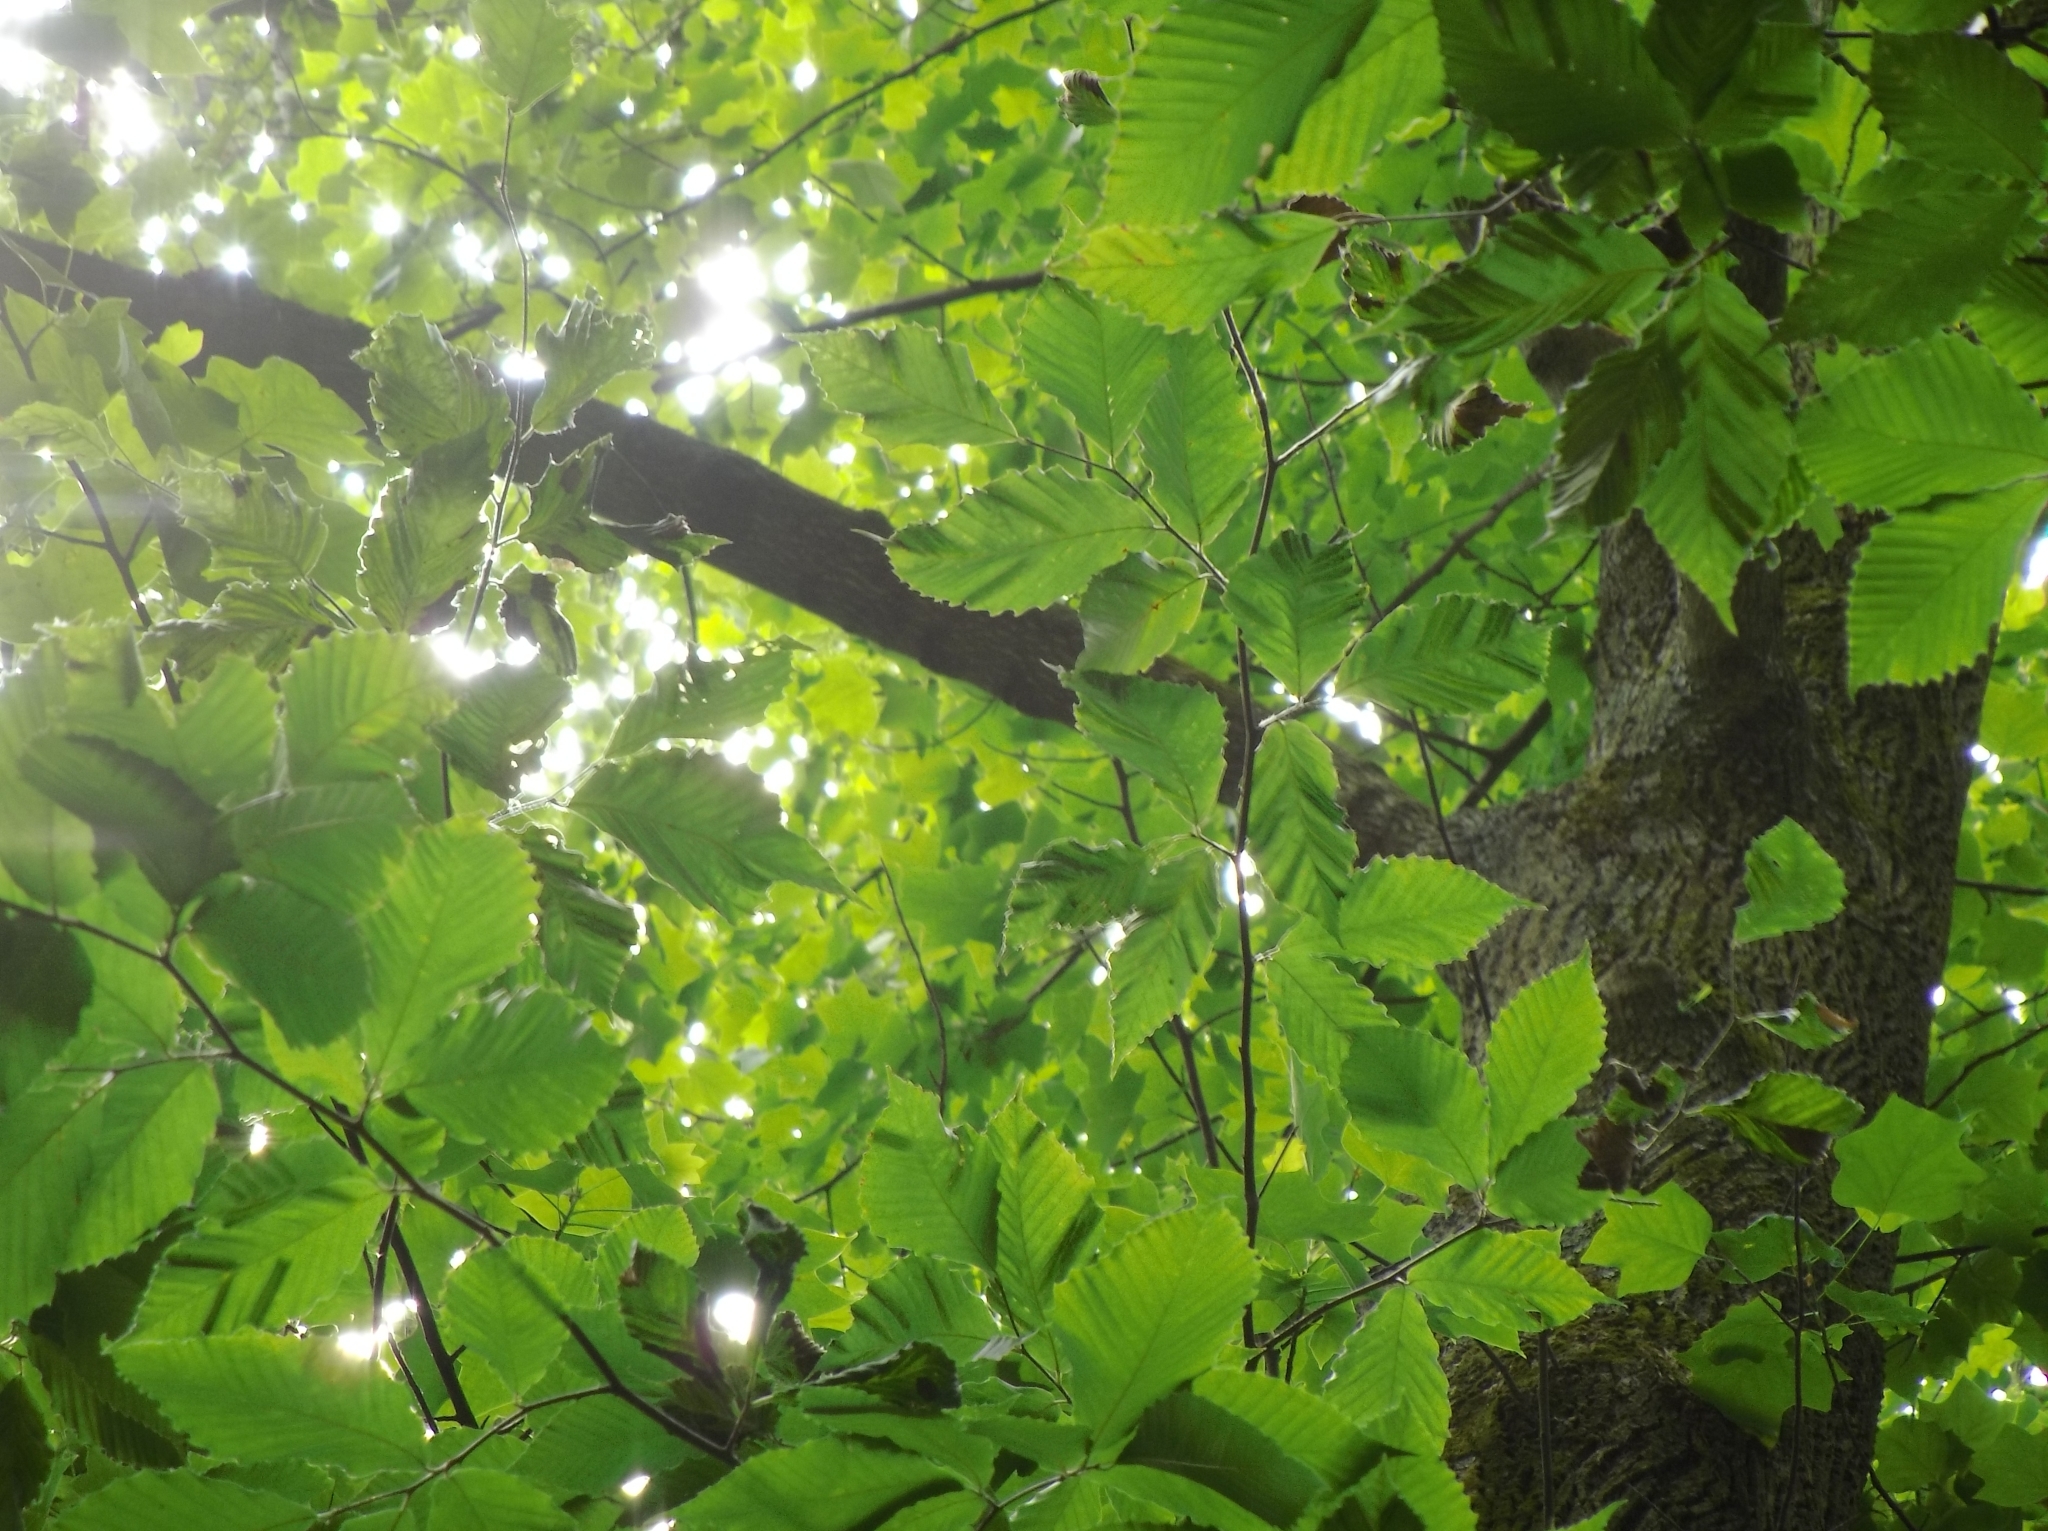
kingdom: Animalia
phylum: Nematoda
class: Chromadorea
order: Rhabditida
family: Anguinidae
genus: Litylenchus
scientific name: Litylenchus crenatae
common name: Beech leaf disease
